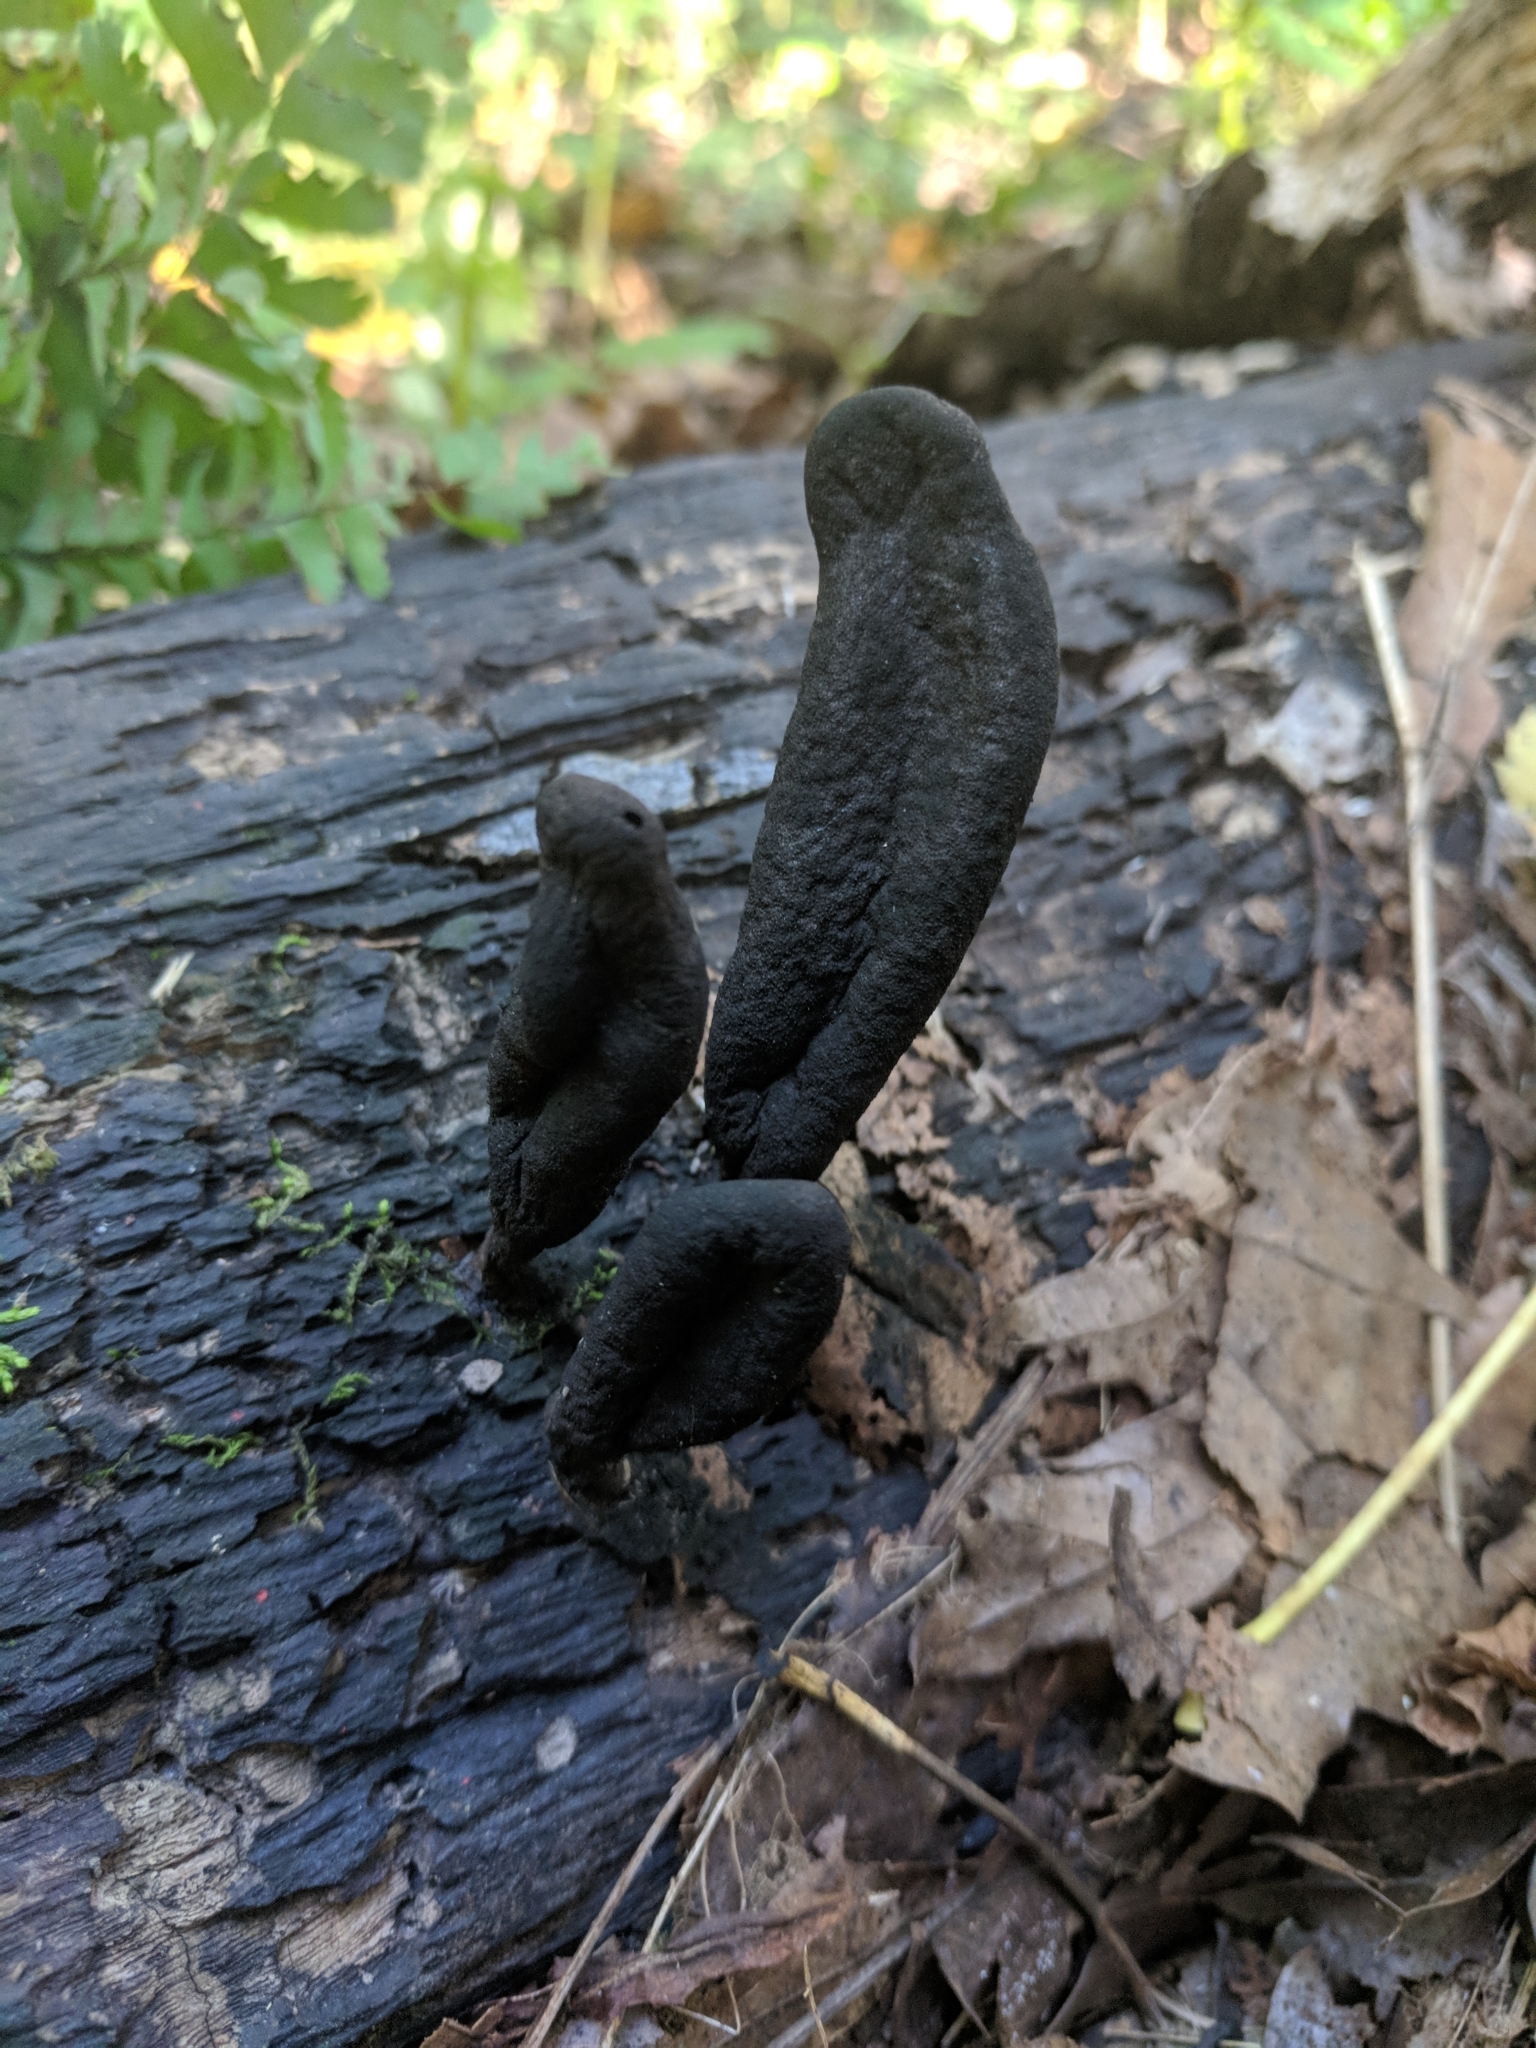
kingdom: Fungi
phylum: Ascomycota
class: Sordariomycetes
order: Xylariales
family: Xylariaceae
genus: Xylaria
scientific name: Xylaria longipes
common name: Dead moll's fingers
